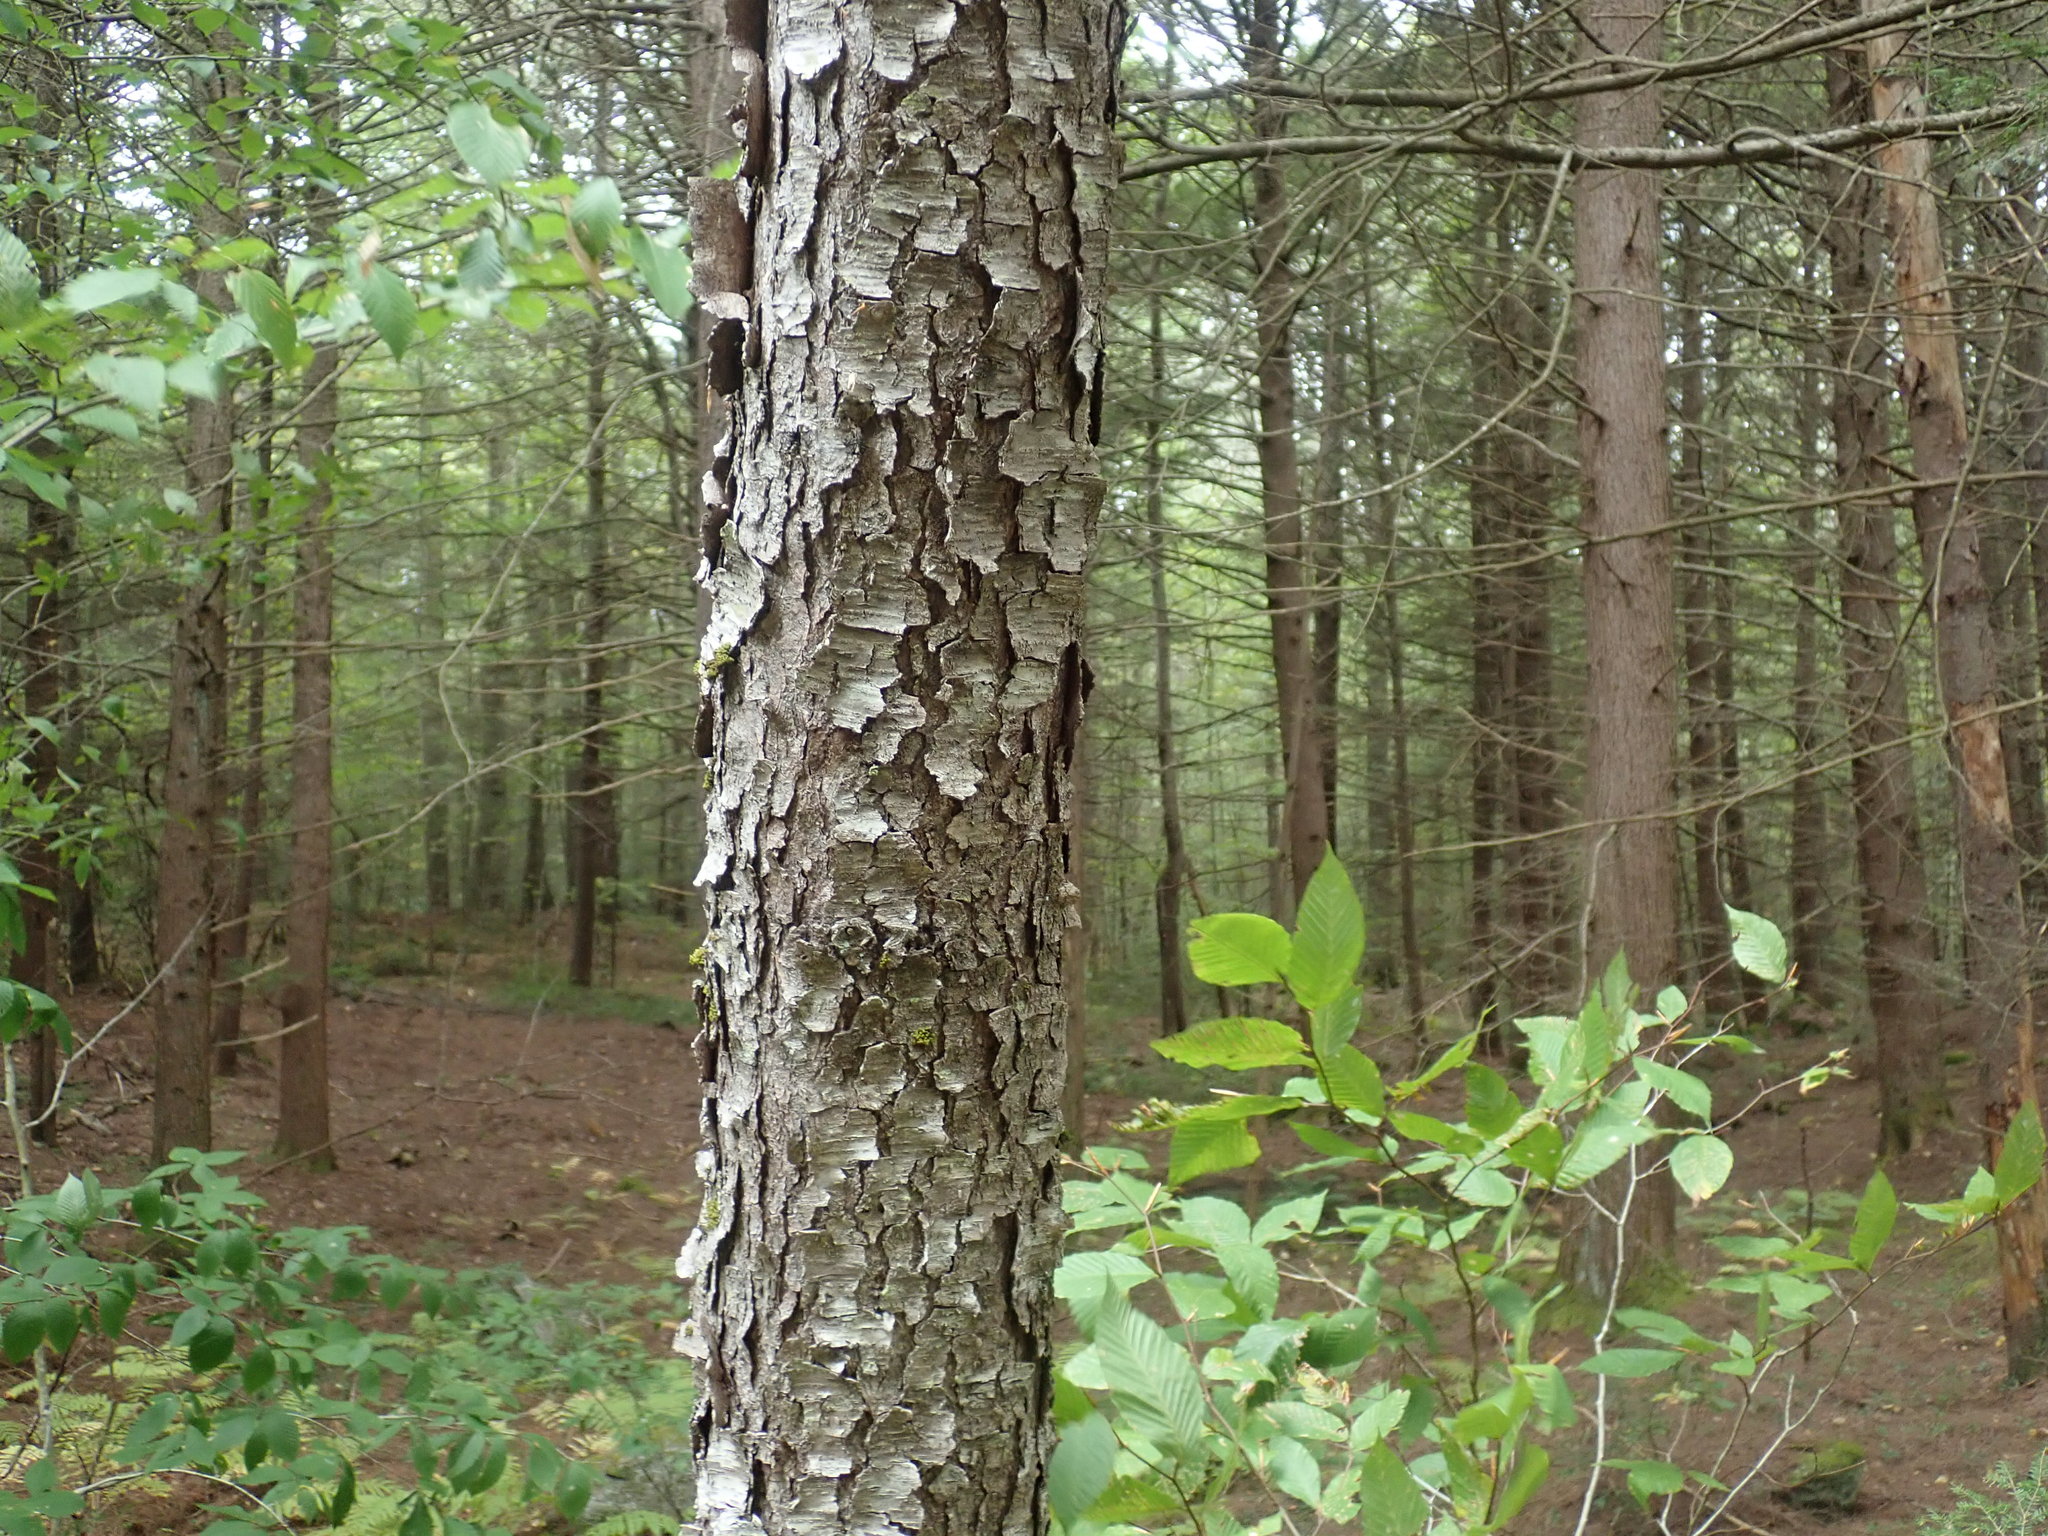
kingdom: Plantae
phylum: Tracheophyta
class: Magnoliopsida
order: Rosales
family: Rosaceae
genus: Prunus
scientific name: Prunus serotina
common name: Black cherry
